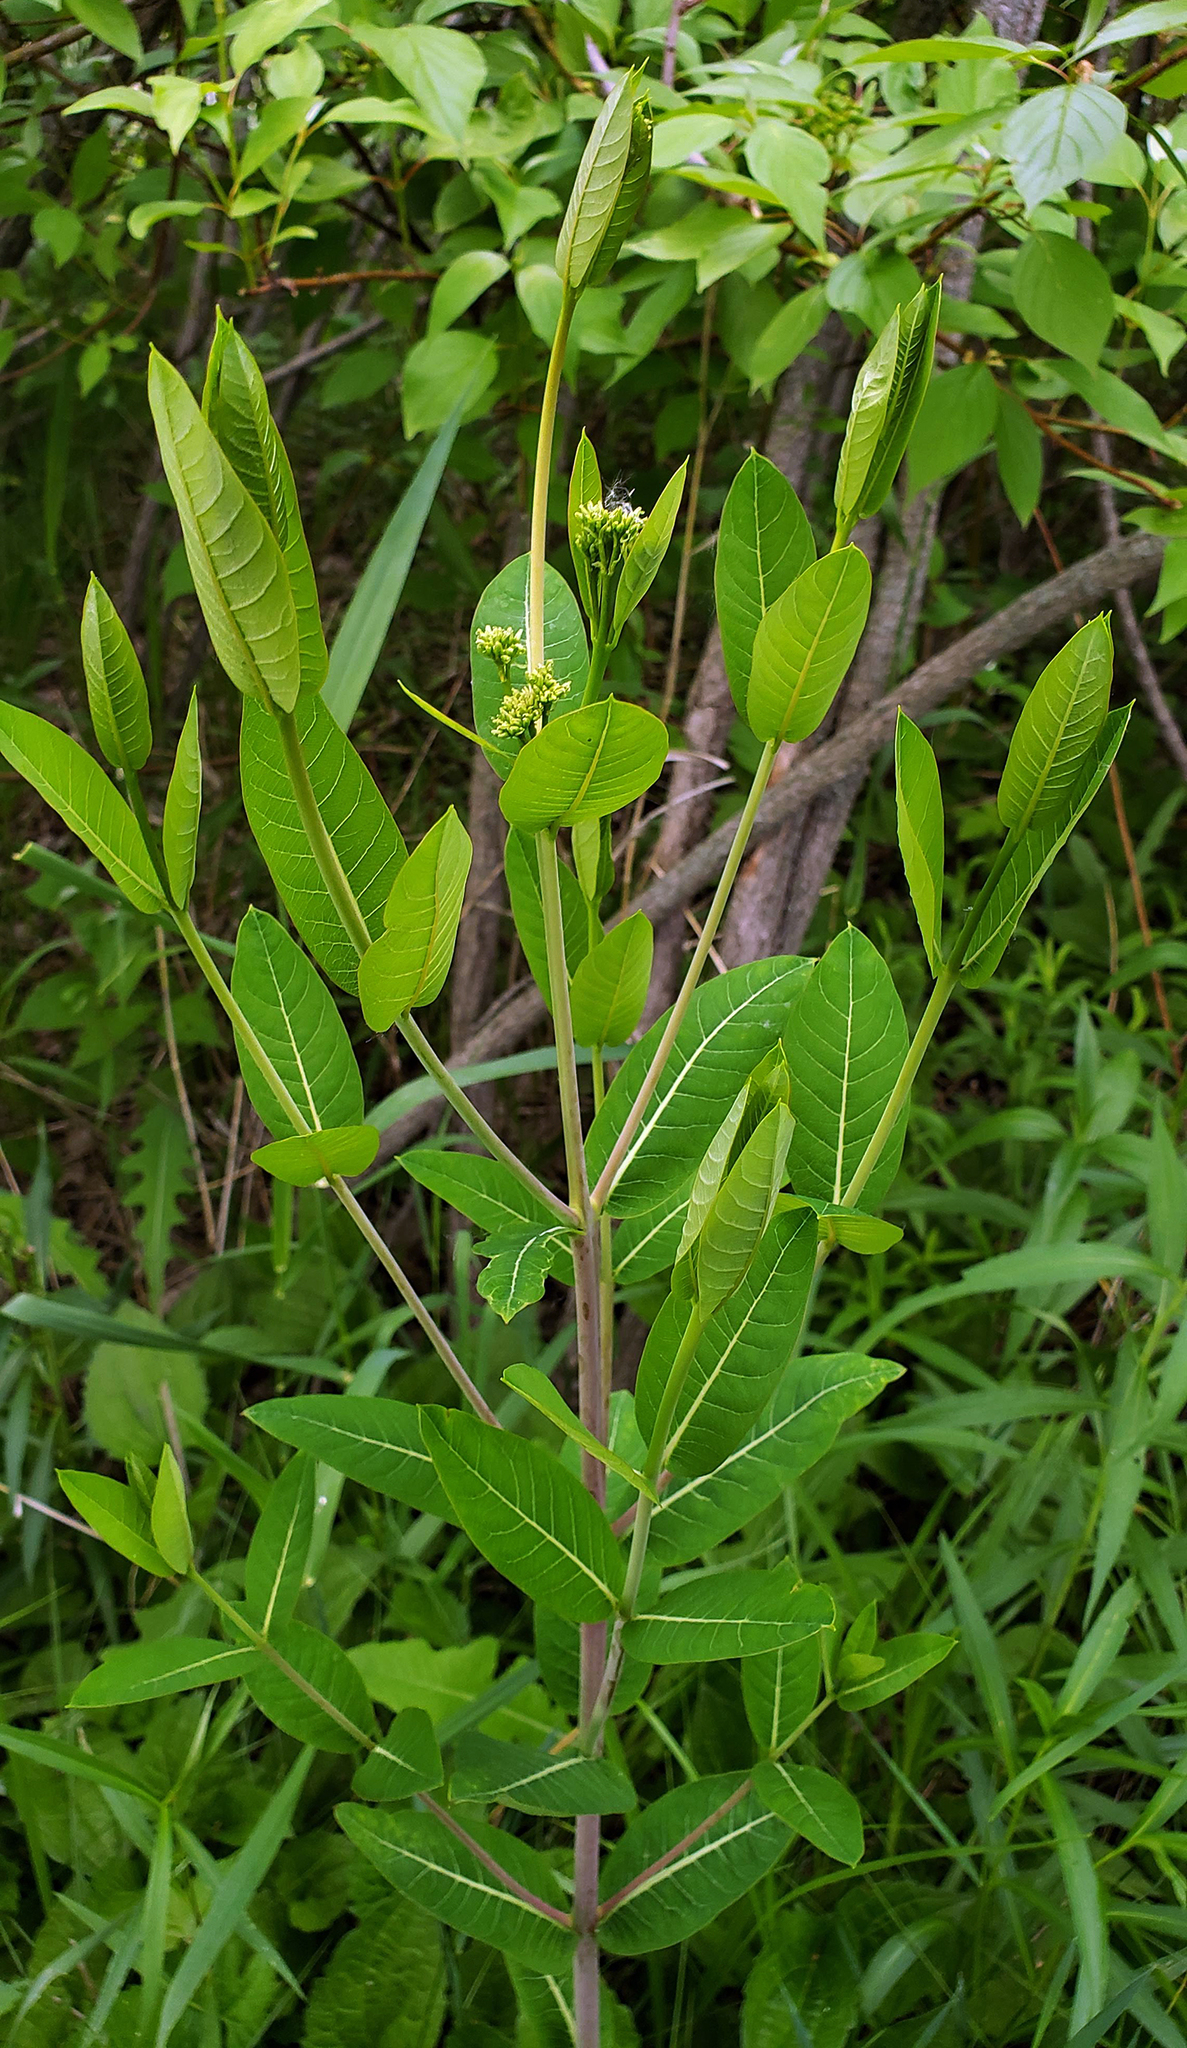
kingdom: Plantae
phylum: Tracheophyta
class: Magnoliopsida
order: Gentianales
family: Apocynaceae
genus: Apocynum
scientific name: Apocynum cannabinum
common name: Hemp dogbane
